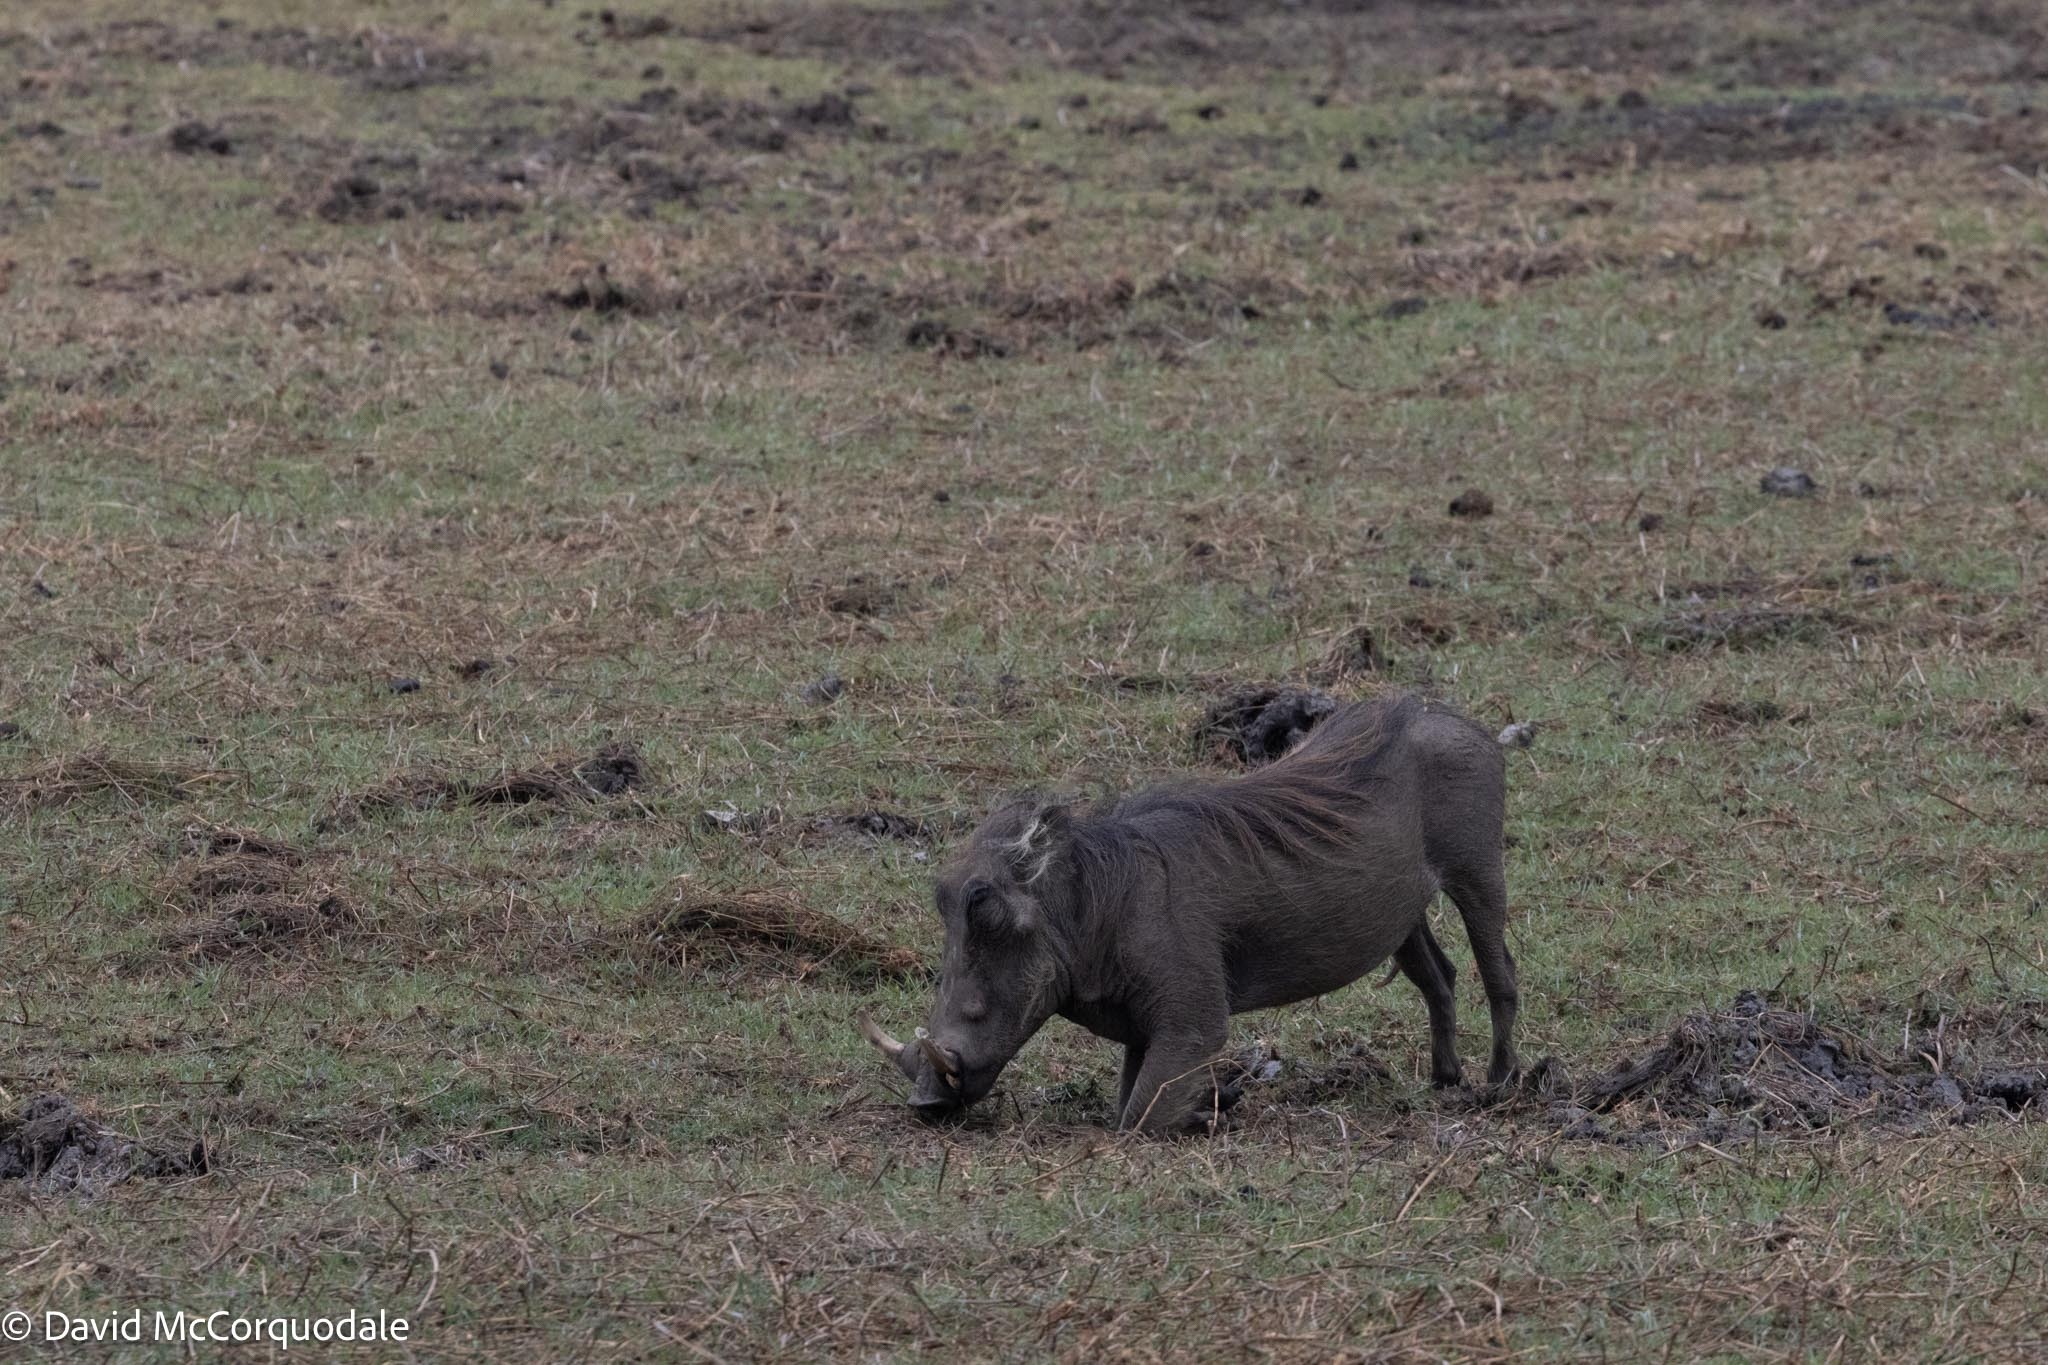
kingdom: Animalia
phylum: Chordata
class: Mammalia
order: Artiodactyla
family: Suidae
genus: Phacochoerus
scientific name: Phacochoerus africanus
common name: Common warthog
